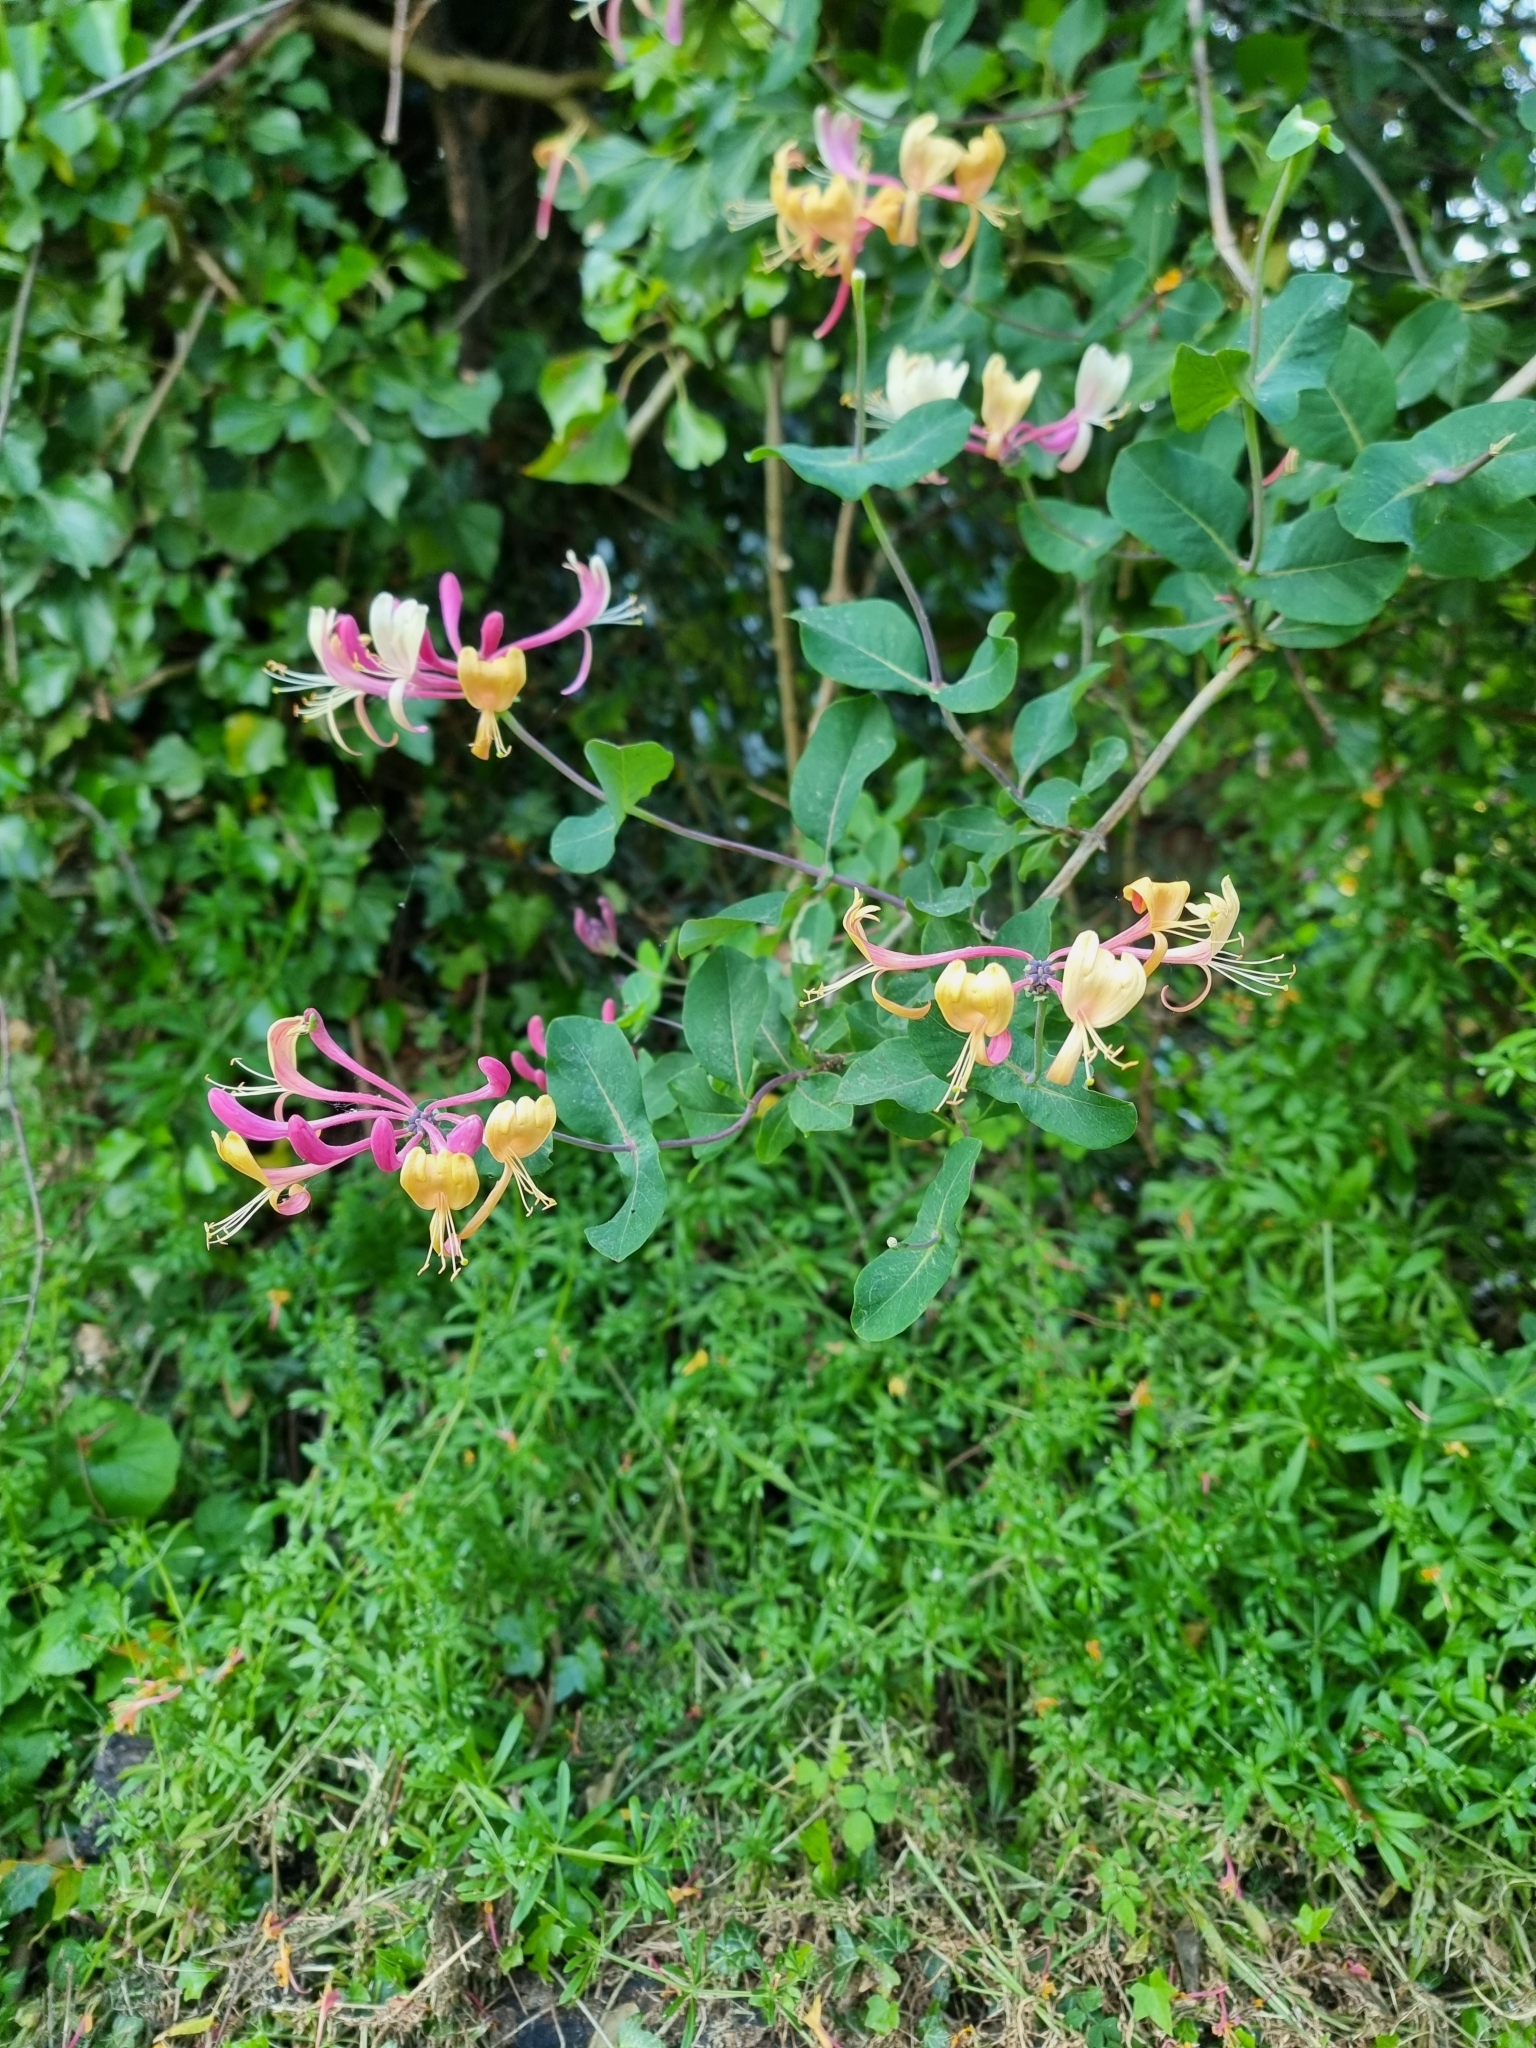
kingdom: Plantae
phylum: Tracheophyta
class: Magnoliopsida
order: Dipsacales
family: Caprifoliaceae
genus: Lonicera
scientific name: Lonicera americana
